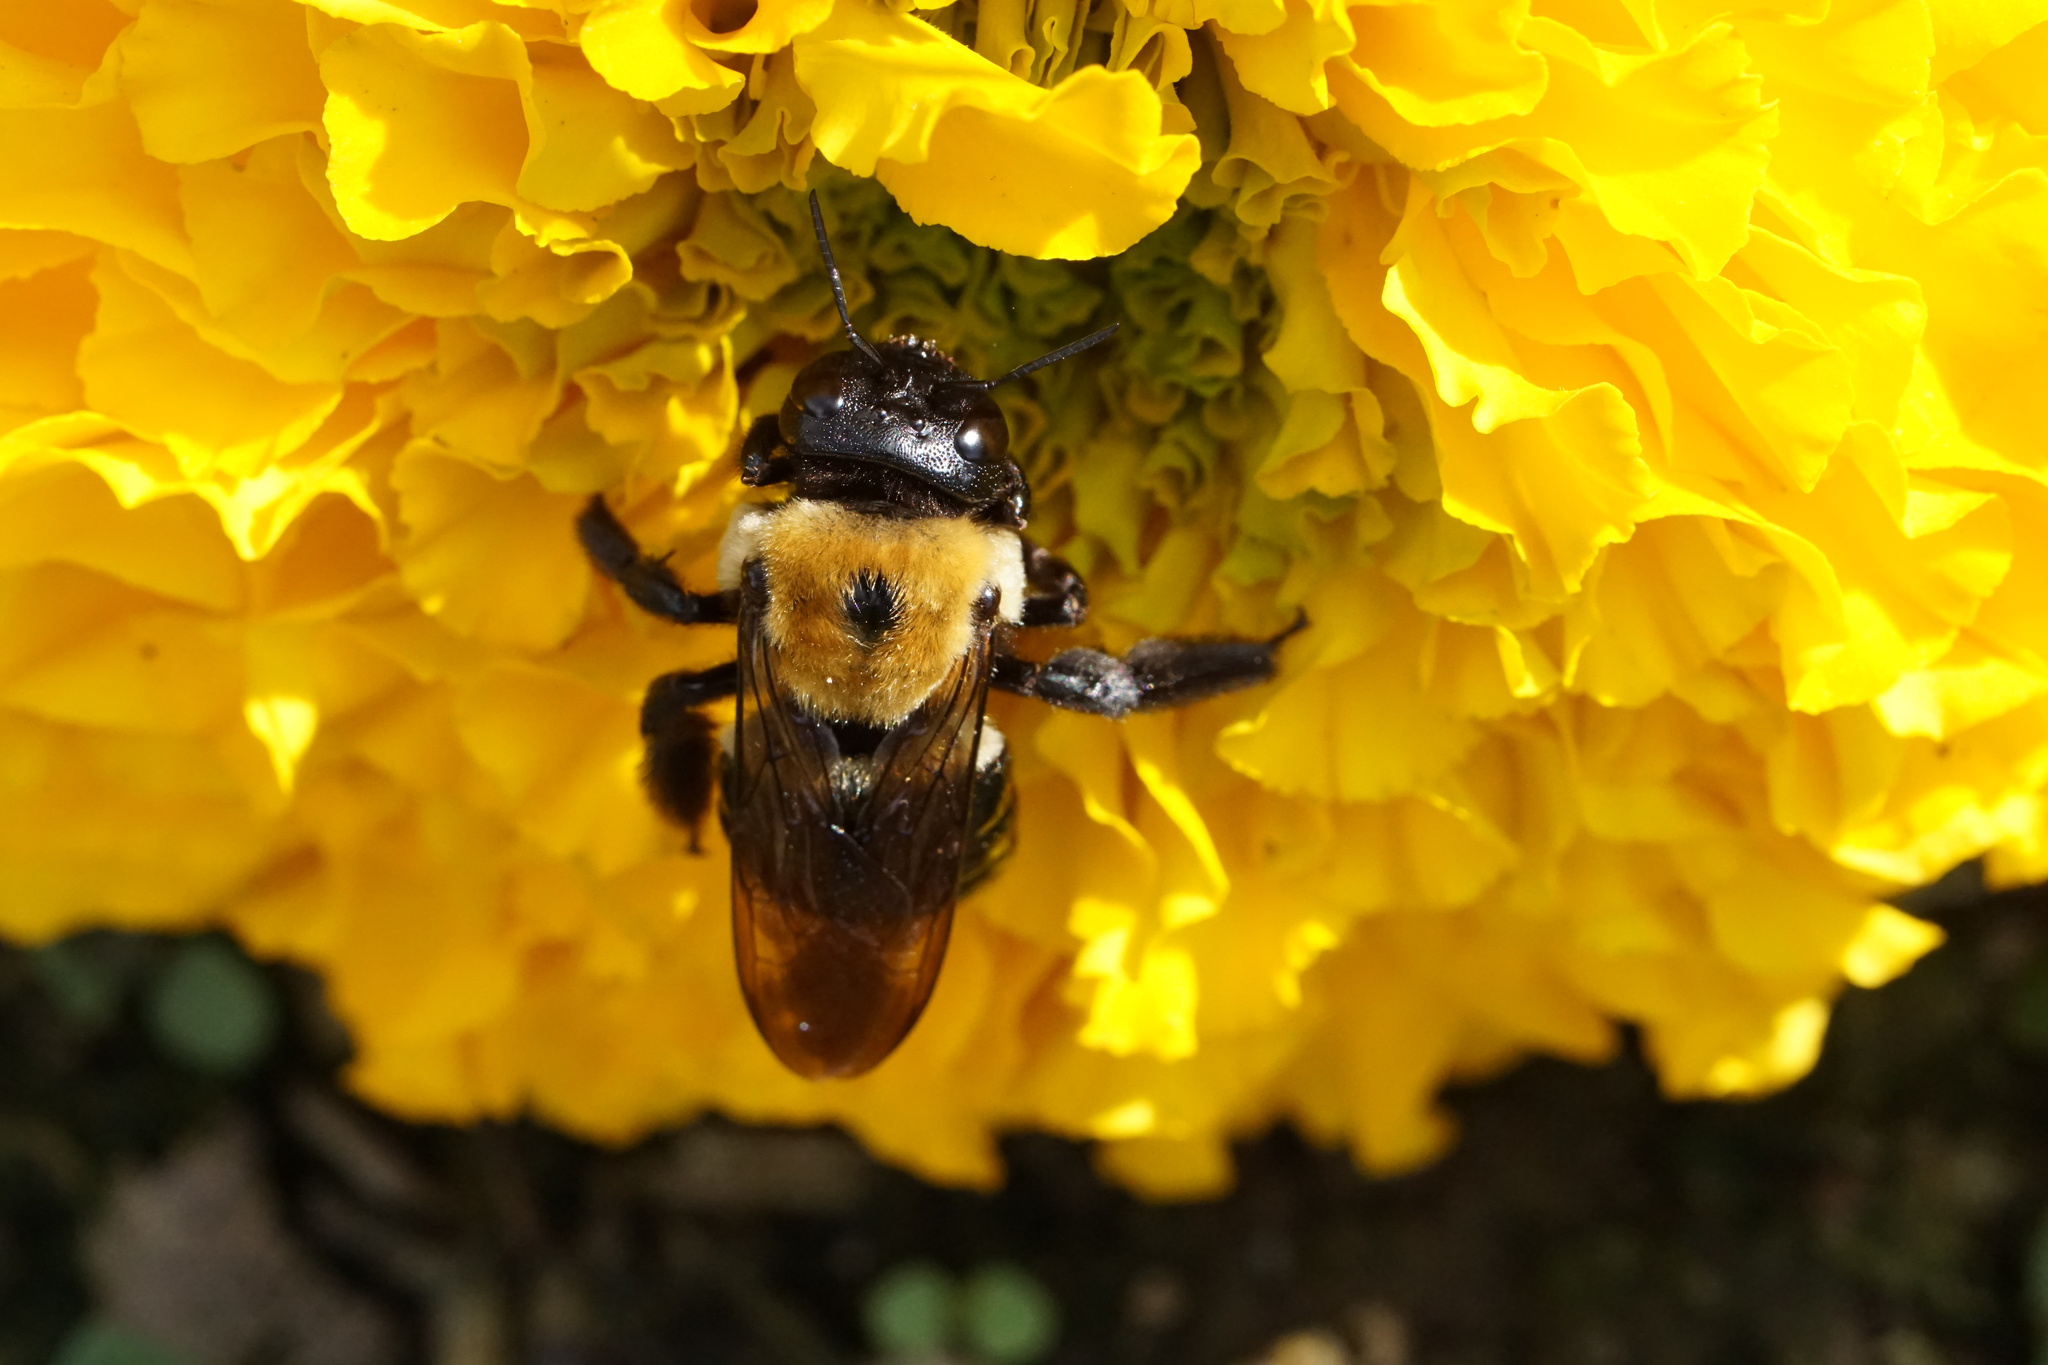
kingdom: Animalia
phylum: Arthropoda
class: Insecta
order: Hymenoptera
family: Apidae
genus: Xylocopa
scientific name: Xylocopa virginica
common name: Carpenter bee
